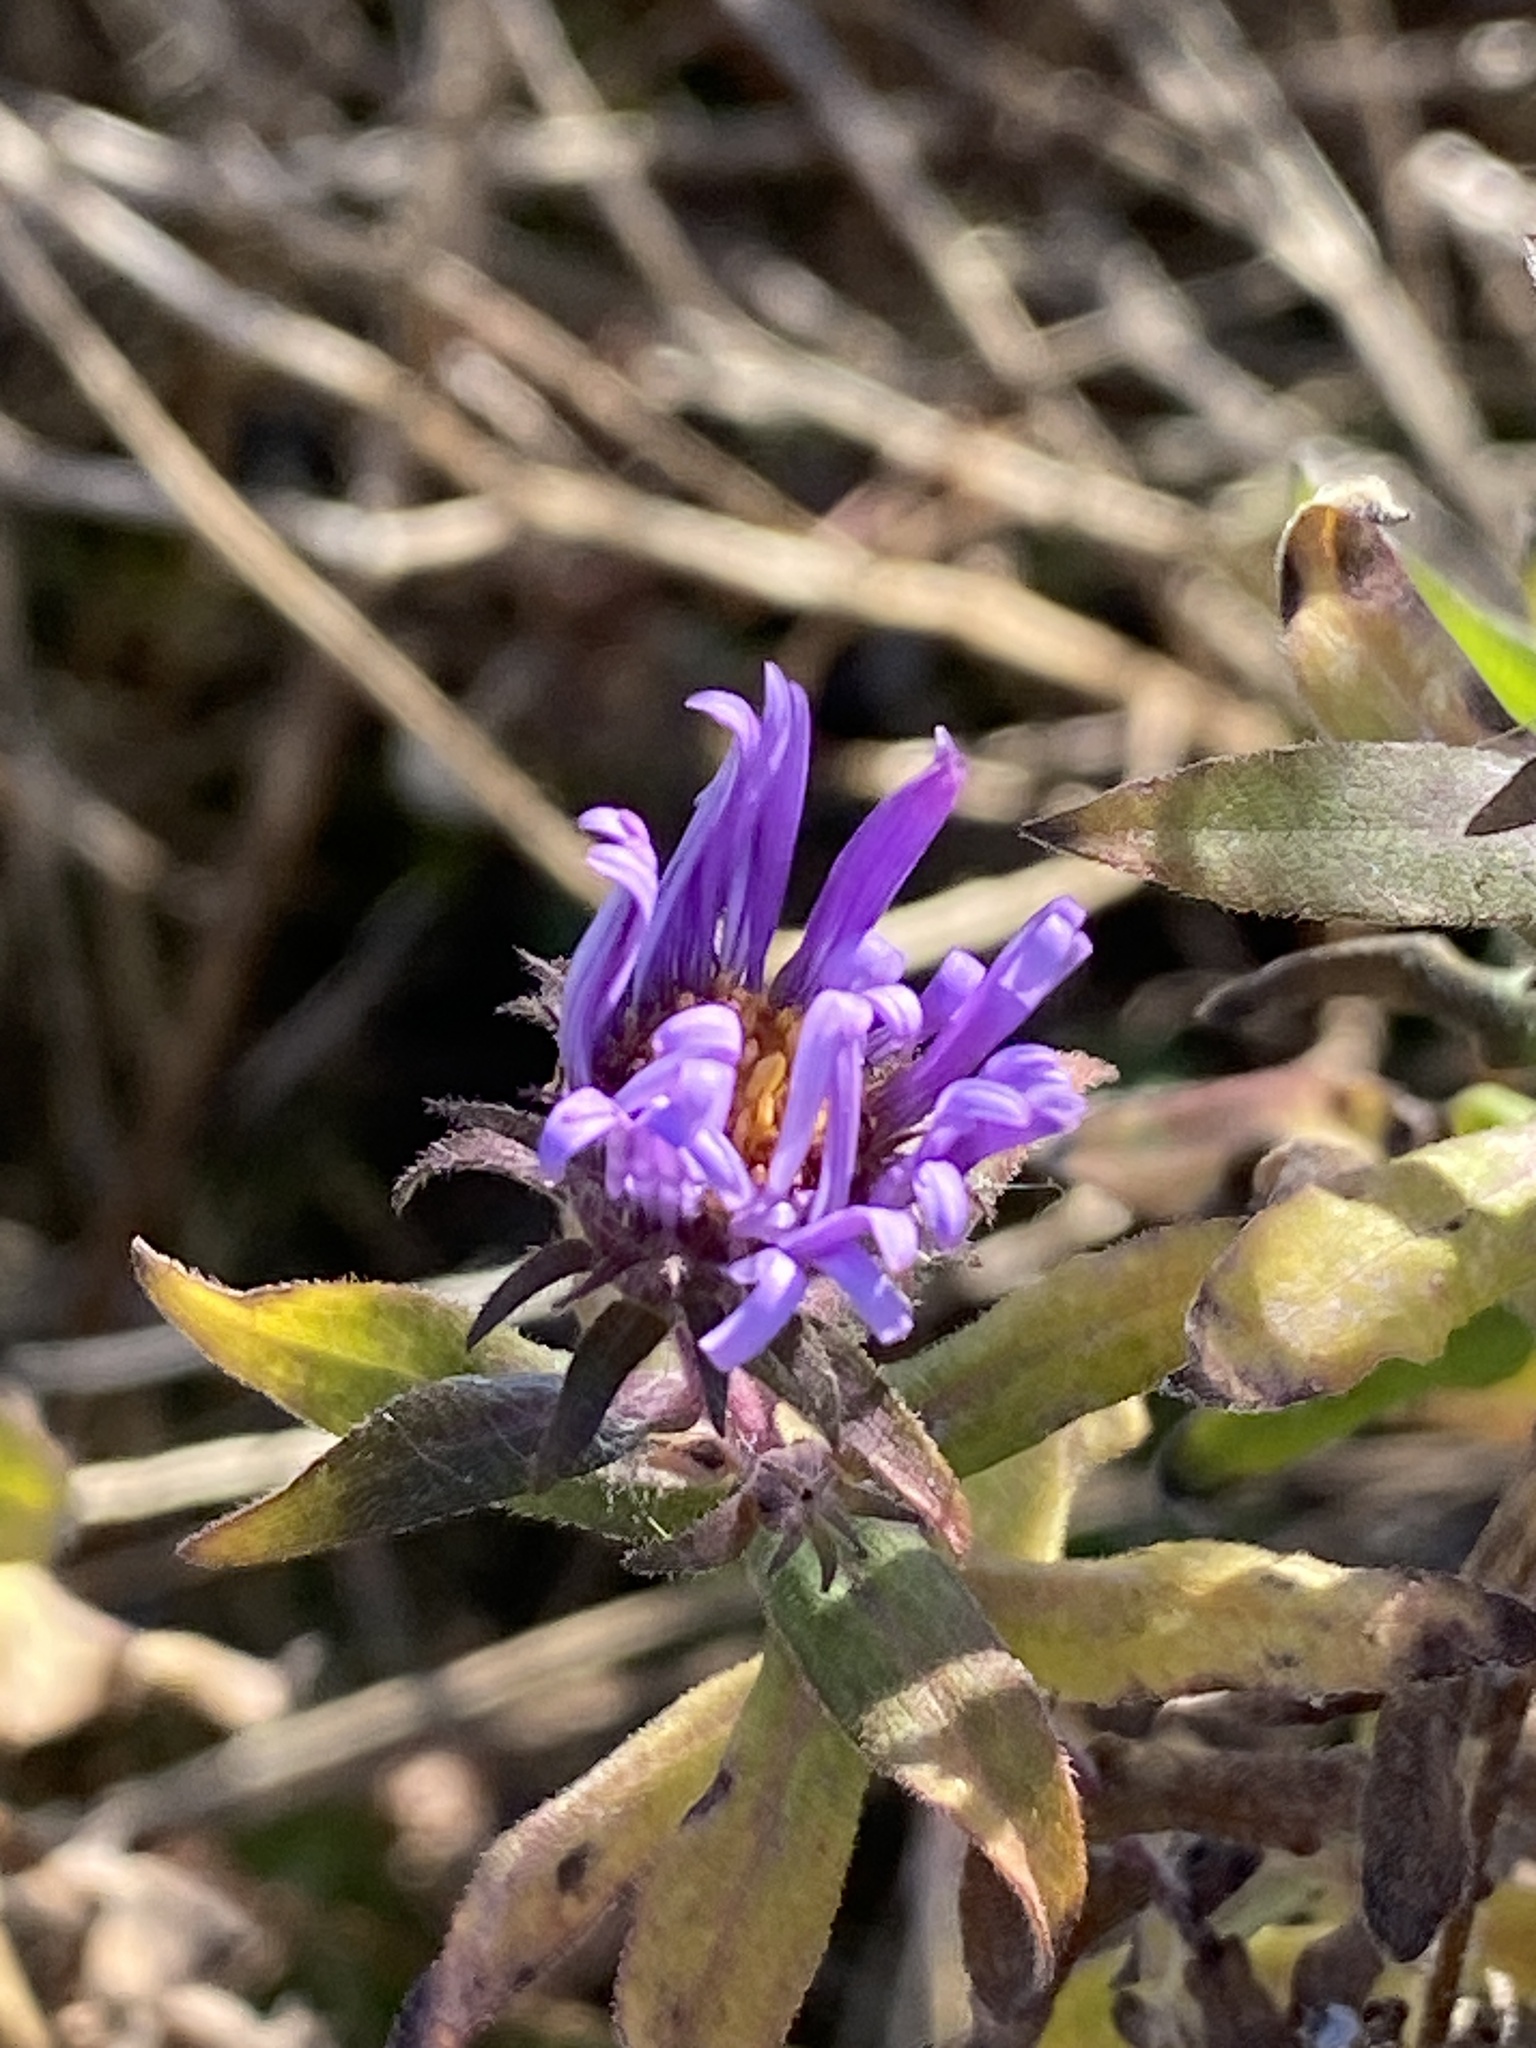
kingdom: Plantae
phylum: Tracheophyta
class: Magnoliopsida
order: Asterales
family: Asteraceae
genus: Symphyotrichum
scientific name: Symphyotrichum novae-angliae
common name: Michaelmas daisy
